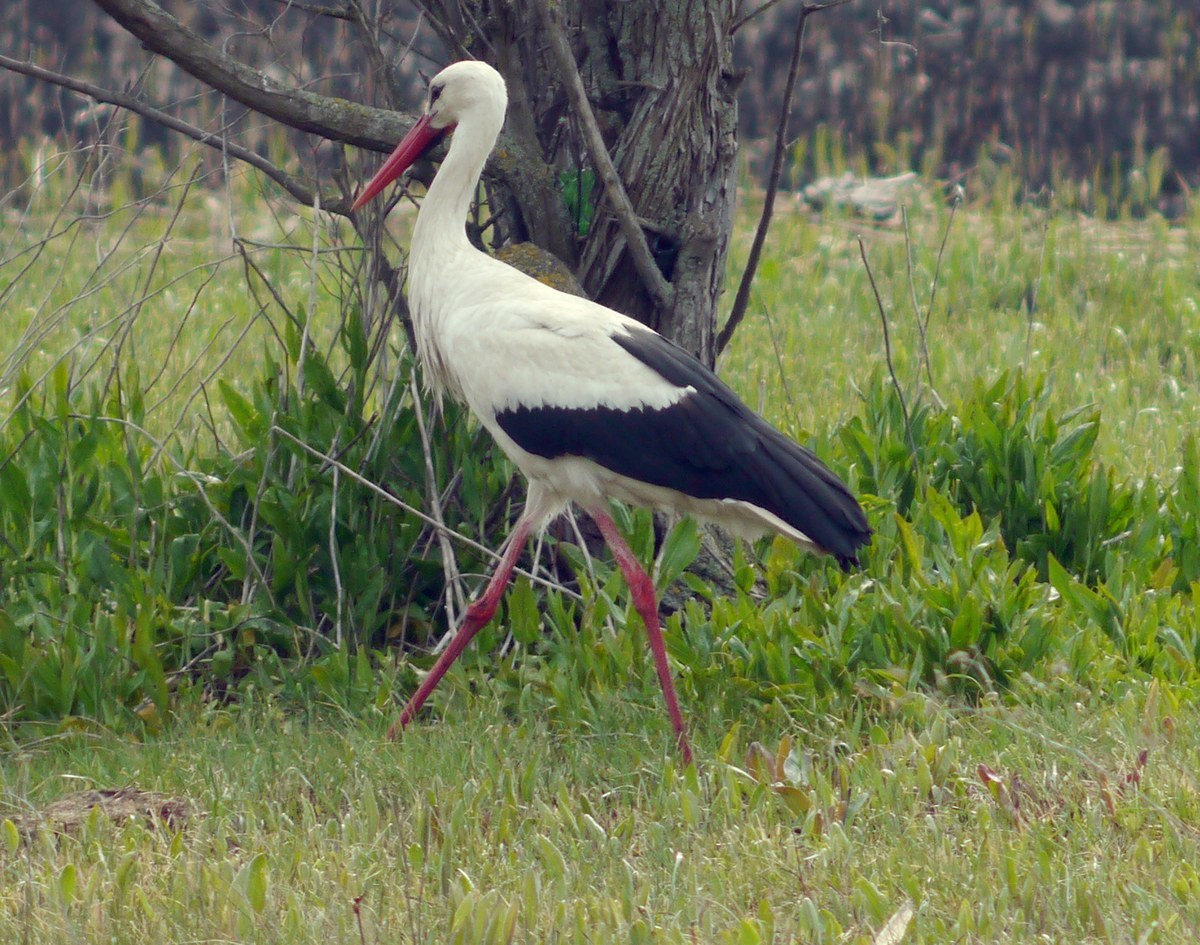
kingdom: Animalia
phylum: Chordata
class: Aves
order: Ciconiiformes
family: Ciconiidae
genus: Ciconia
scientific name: Ciconia ciconia
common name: White stork
